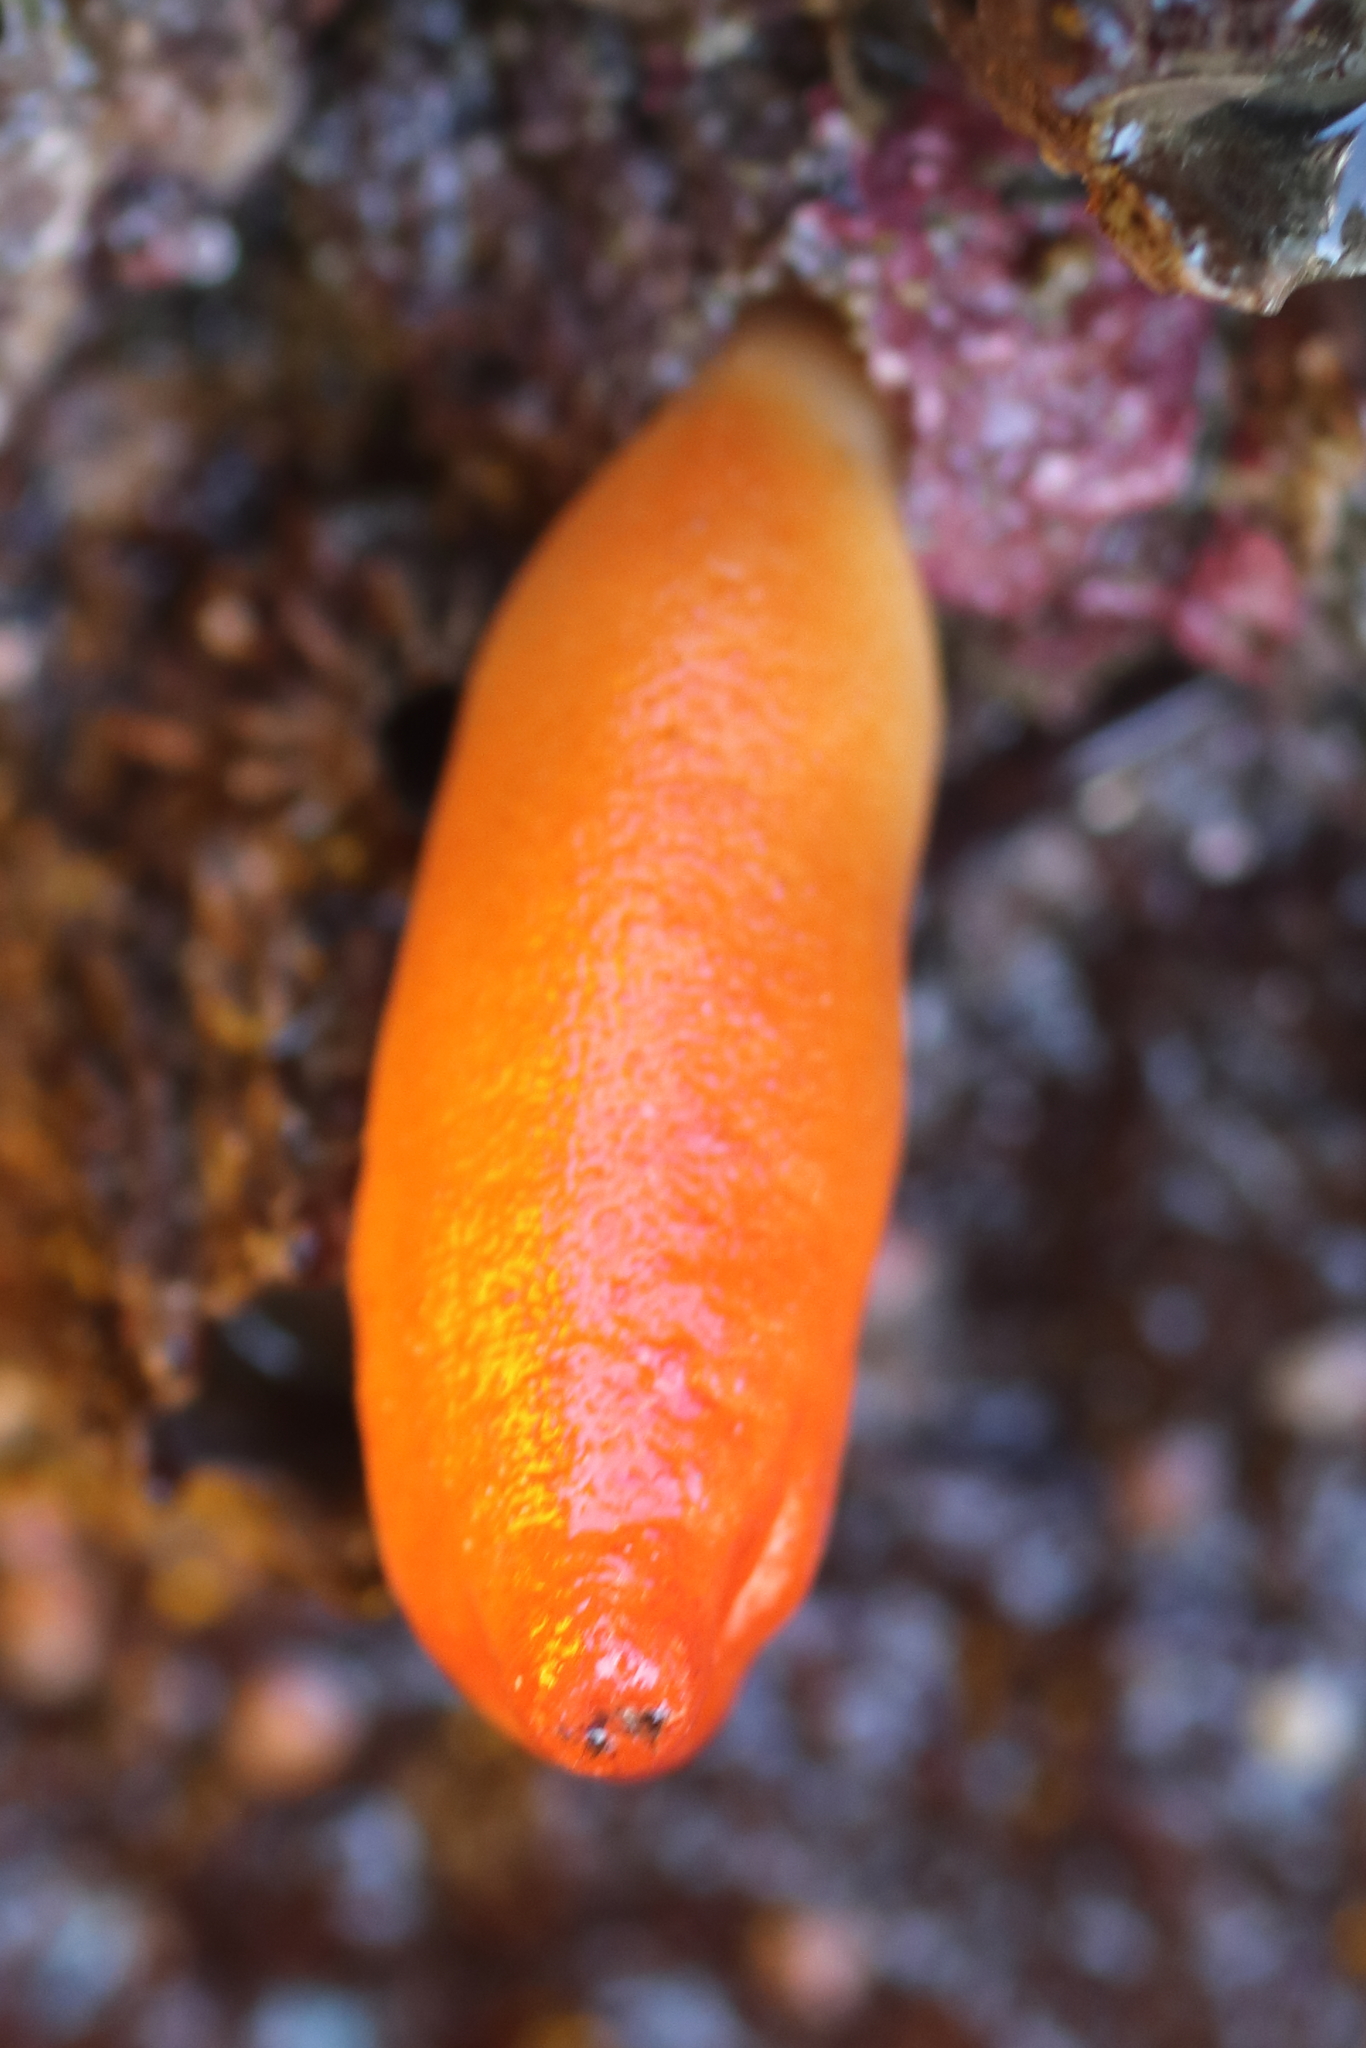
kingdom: Animalia
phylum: Chordata
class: Ascidiacea
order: Stolidobranchia
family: Pyuridae
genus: Halocynthia
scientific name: Halocynthia aurantium
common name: Sea peach
